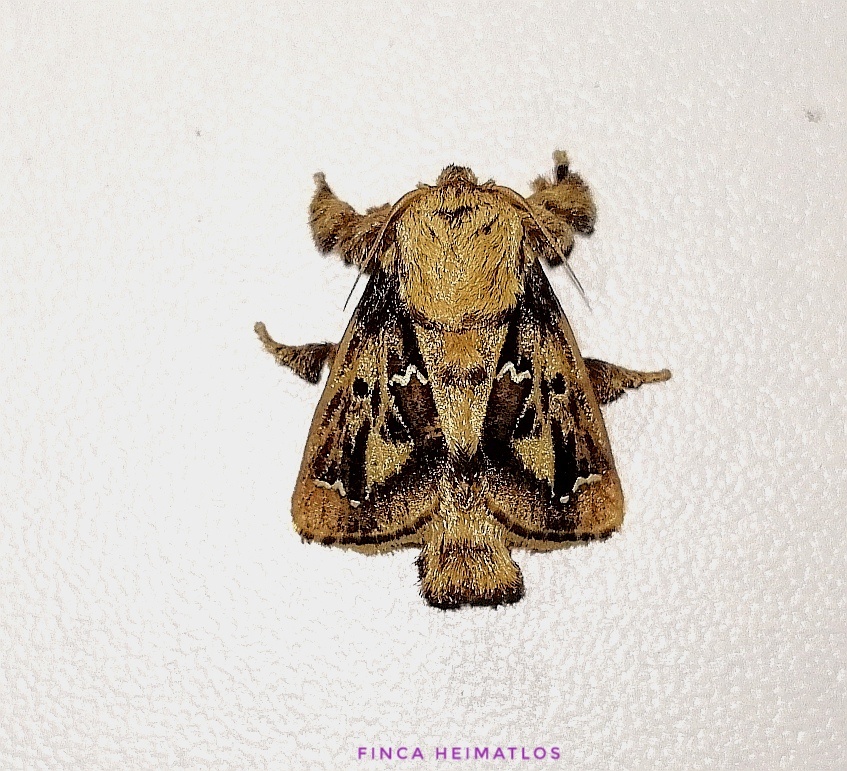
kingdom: Animalia
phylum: Arthropoda
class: Insecta
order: Lepidoptera
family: Limacodidae
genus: Euclea
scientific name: Euclea buscki
